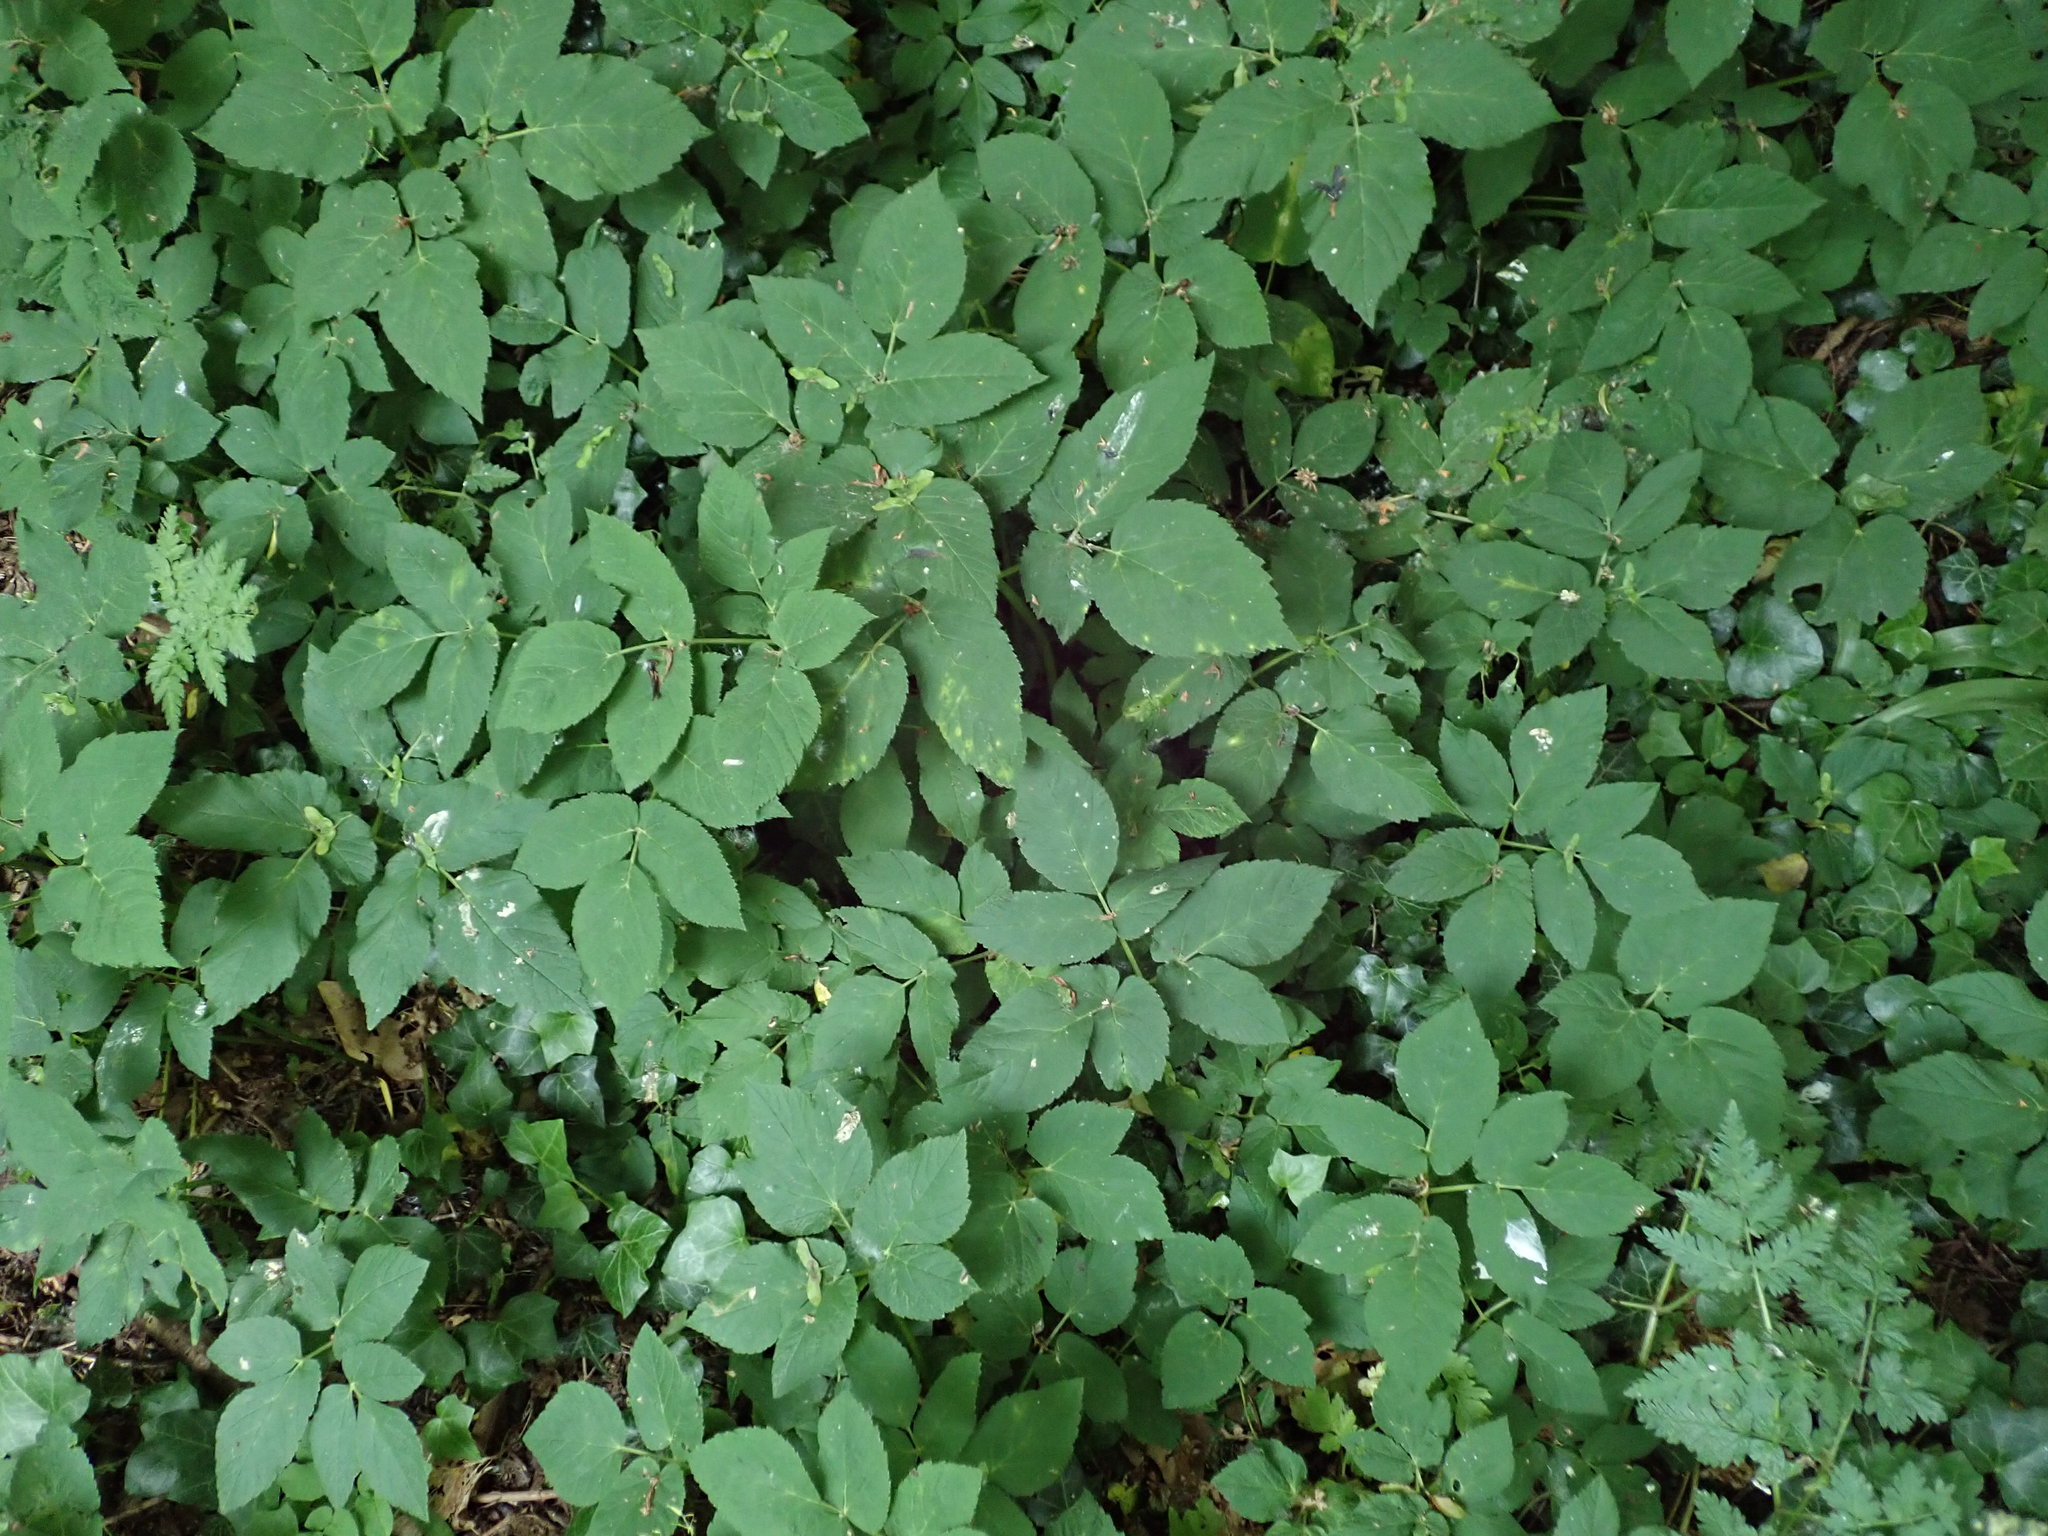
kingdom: Plantae
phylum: Tracheophyta
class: Magnoliopsida
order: Apiales
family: Apiaceae
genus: Aegopodium
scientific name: Aegopodium podagraria
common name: Ground-elder
